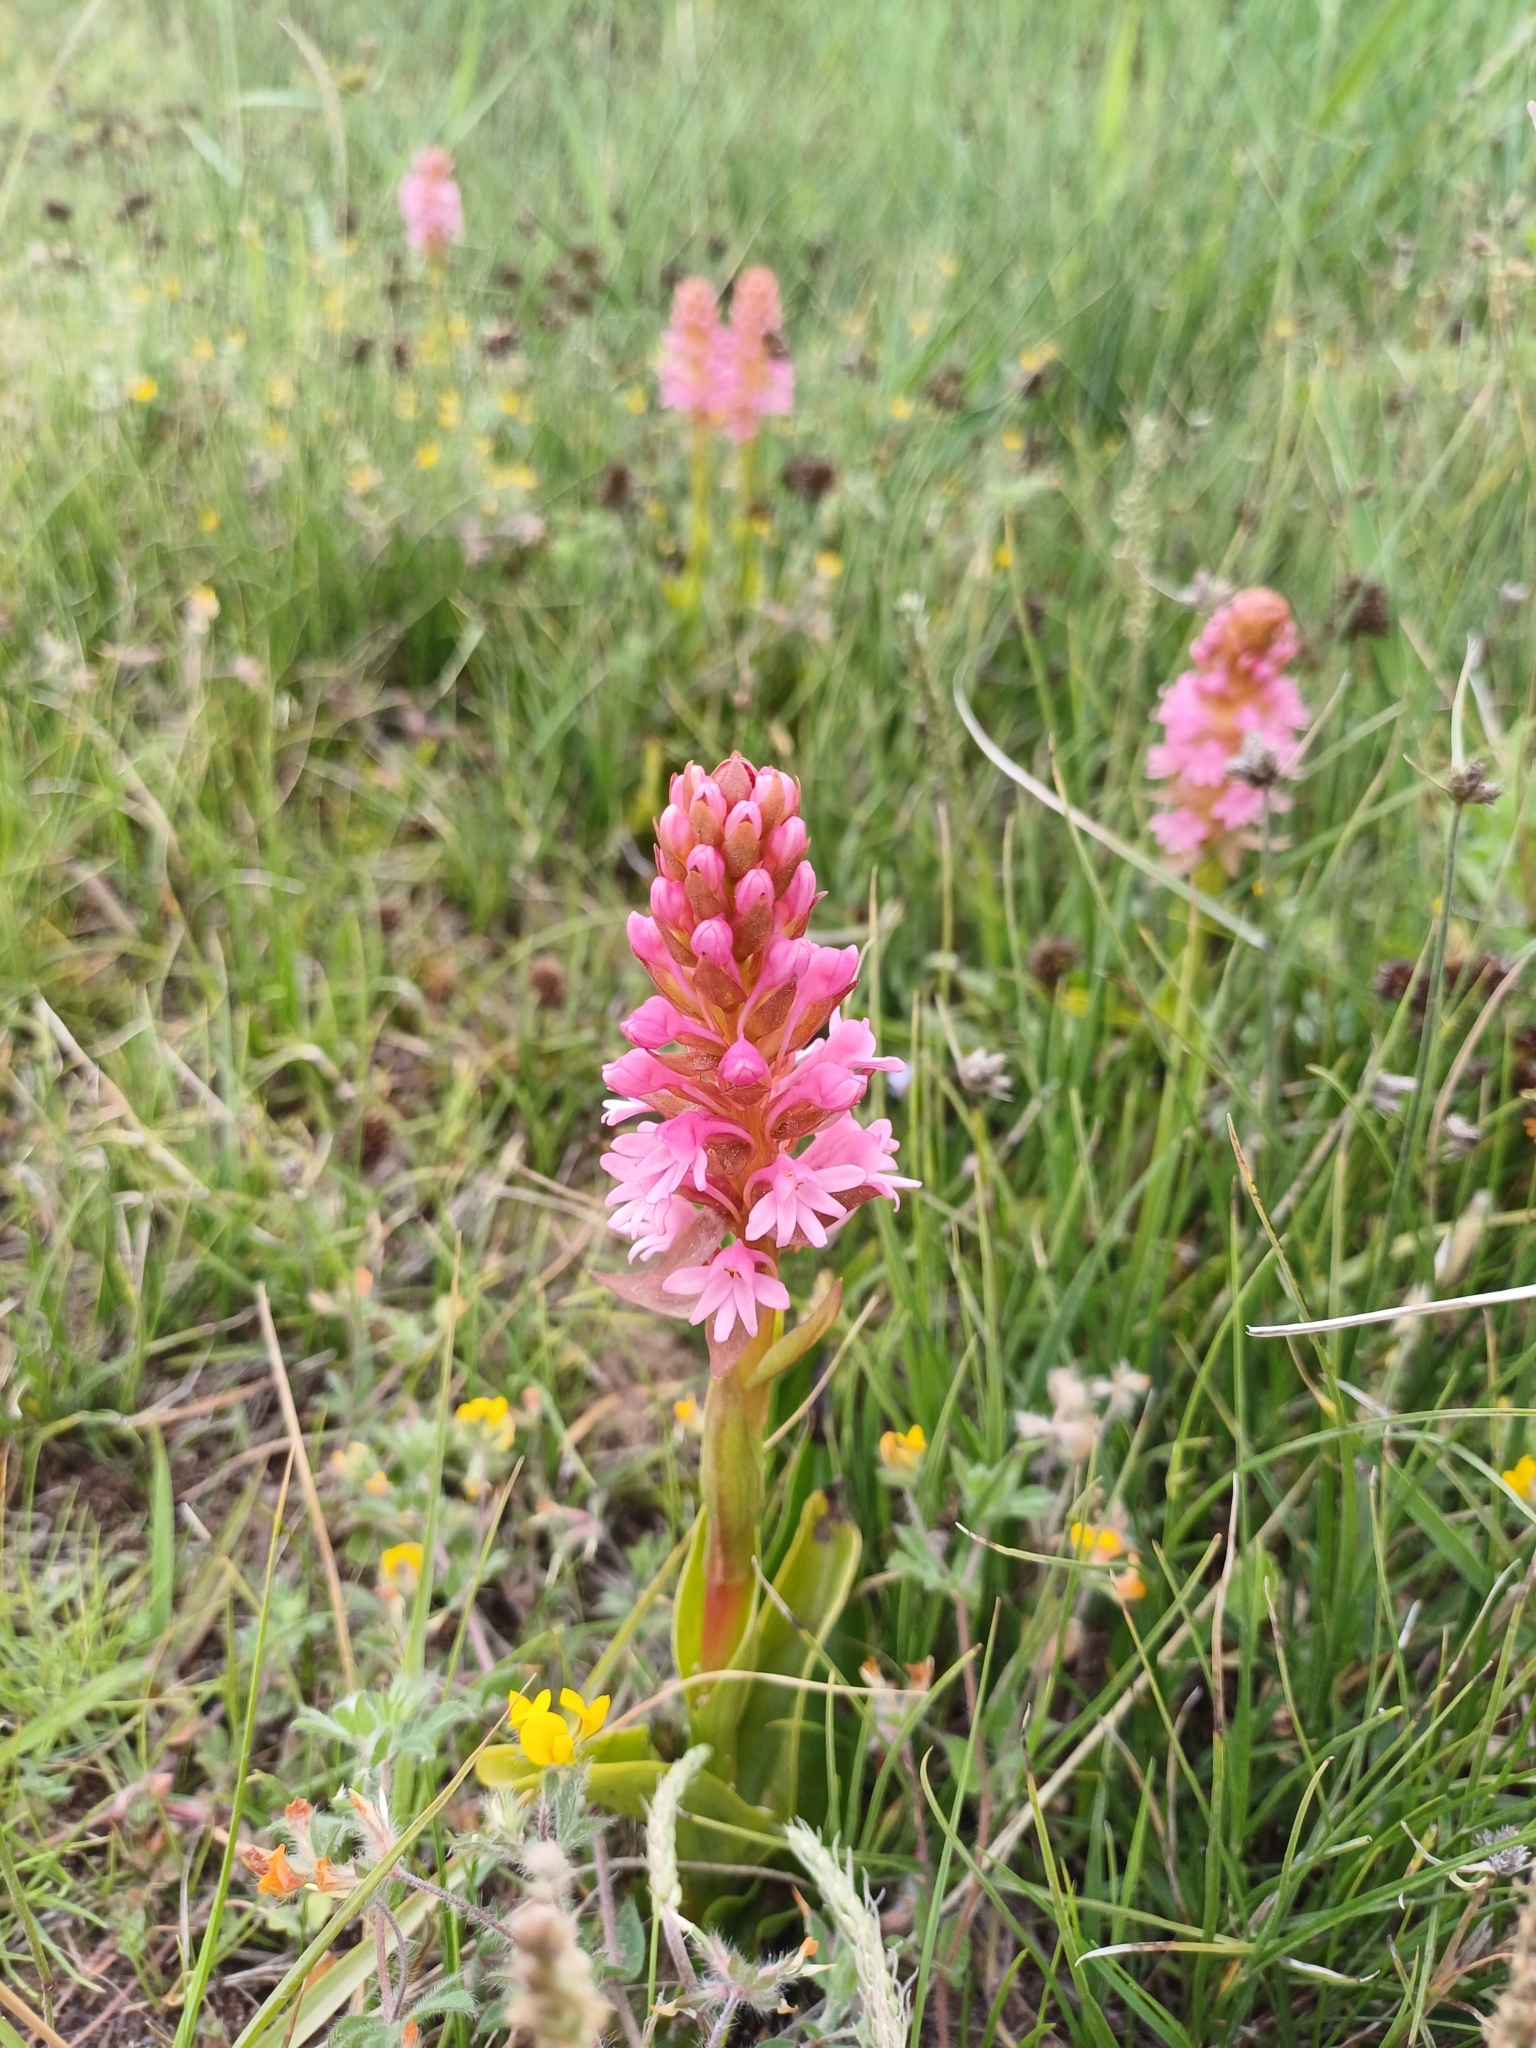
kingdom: Plantae
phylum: Tracheophyta
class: Liliopsida
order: Asparagales
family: Orchidaceae
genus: Satyrium
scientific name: Satyrium hallackii
